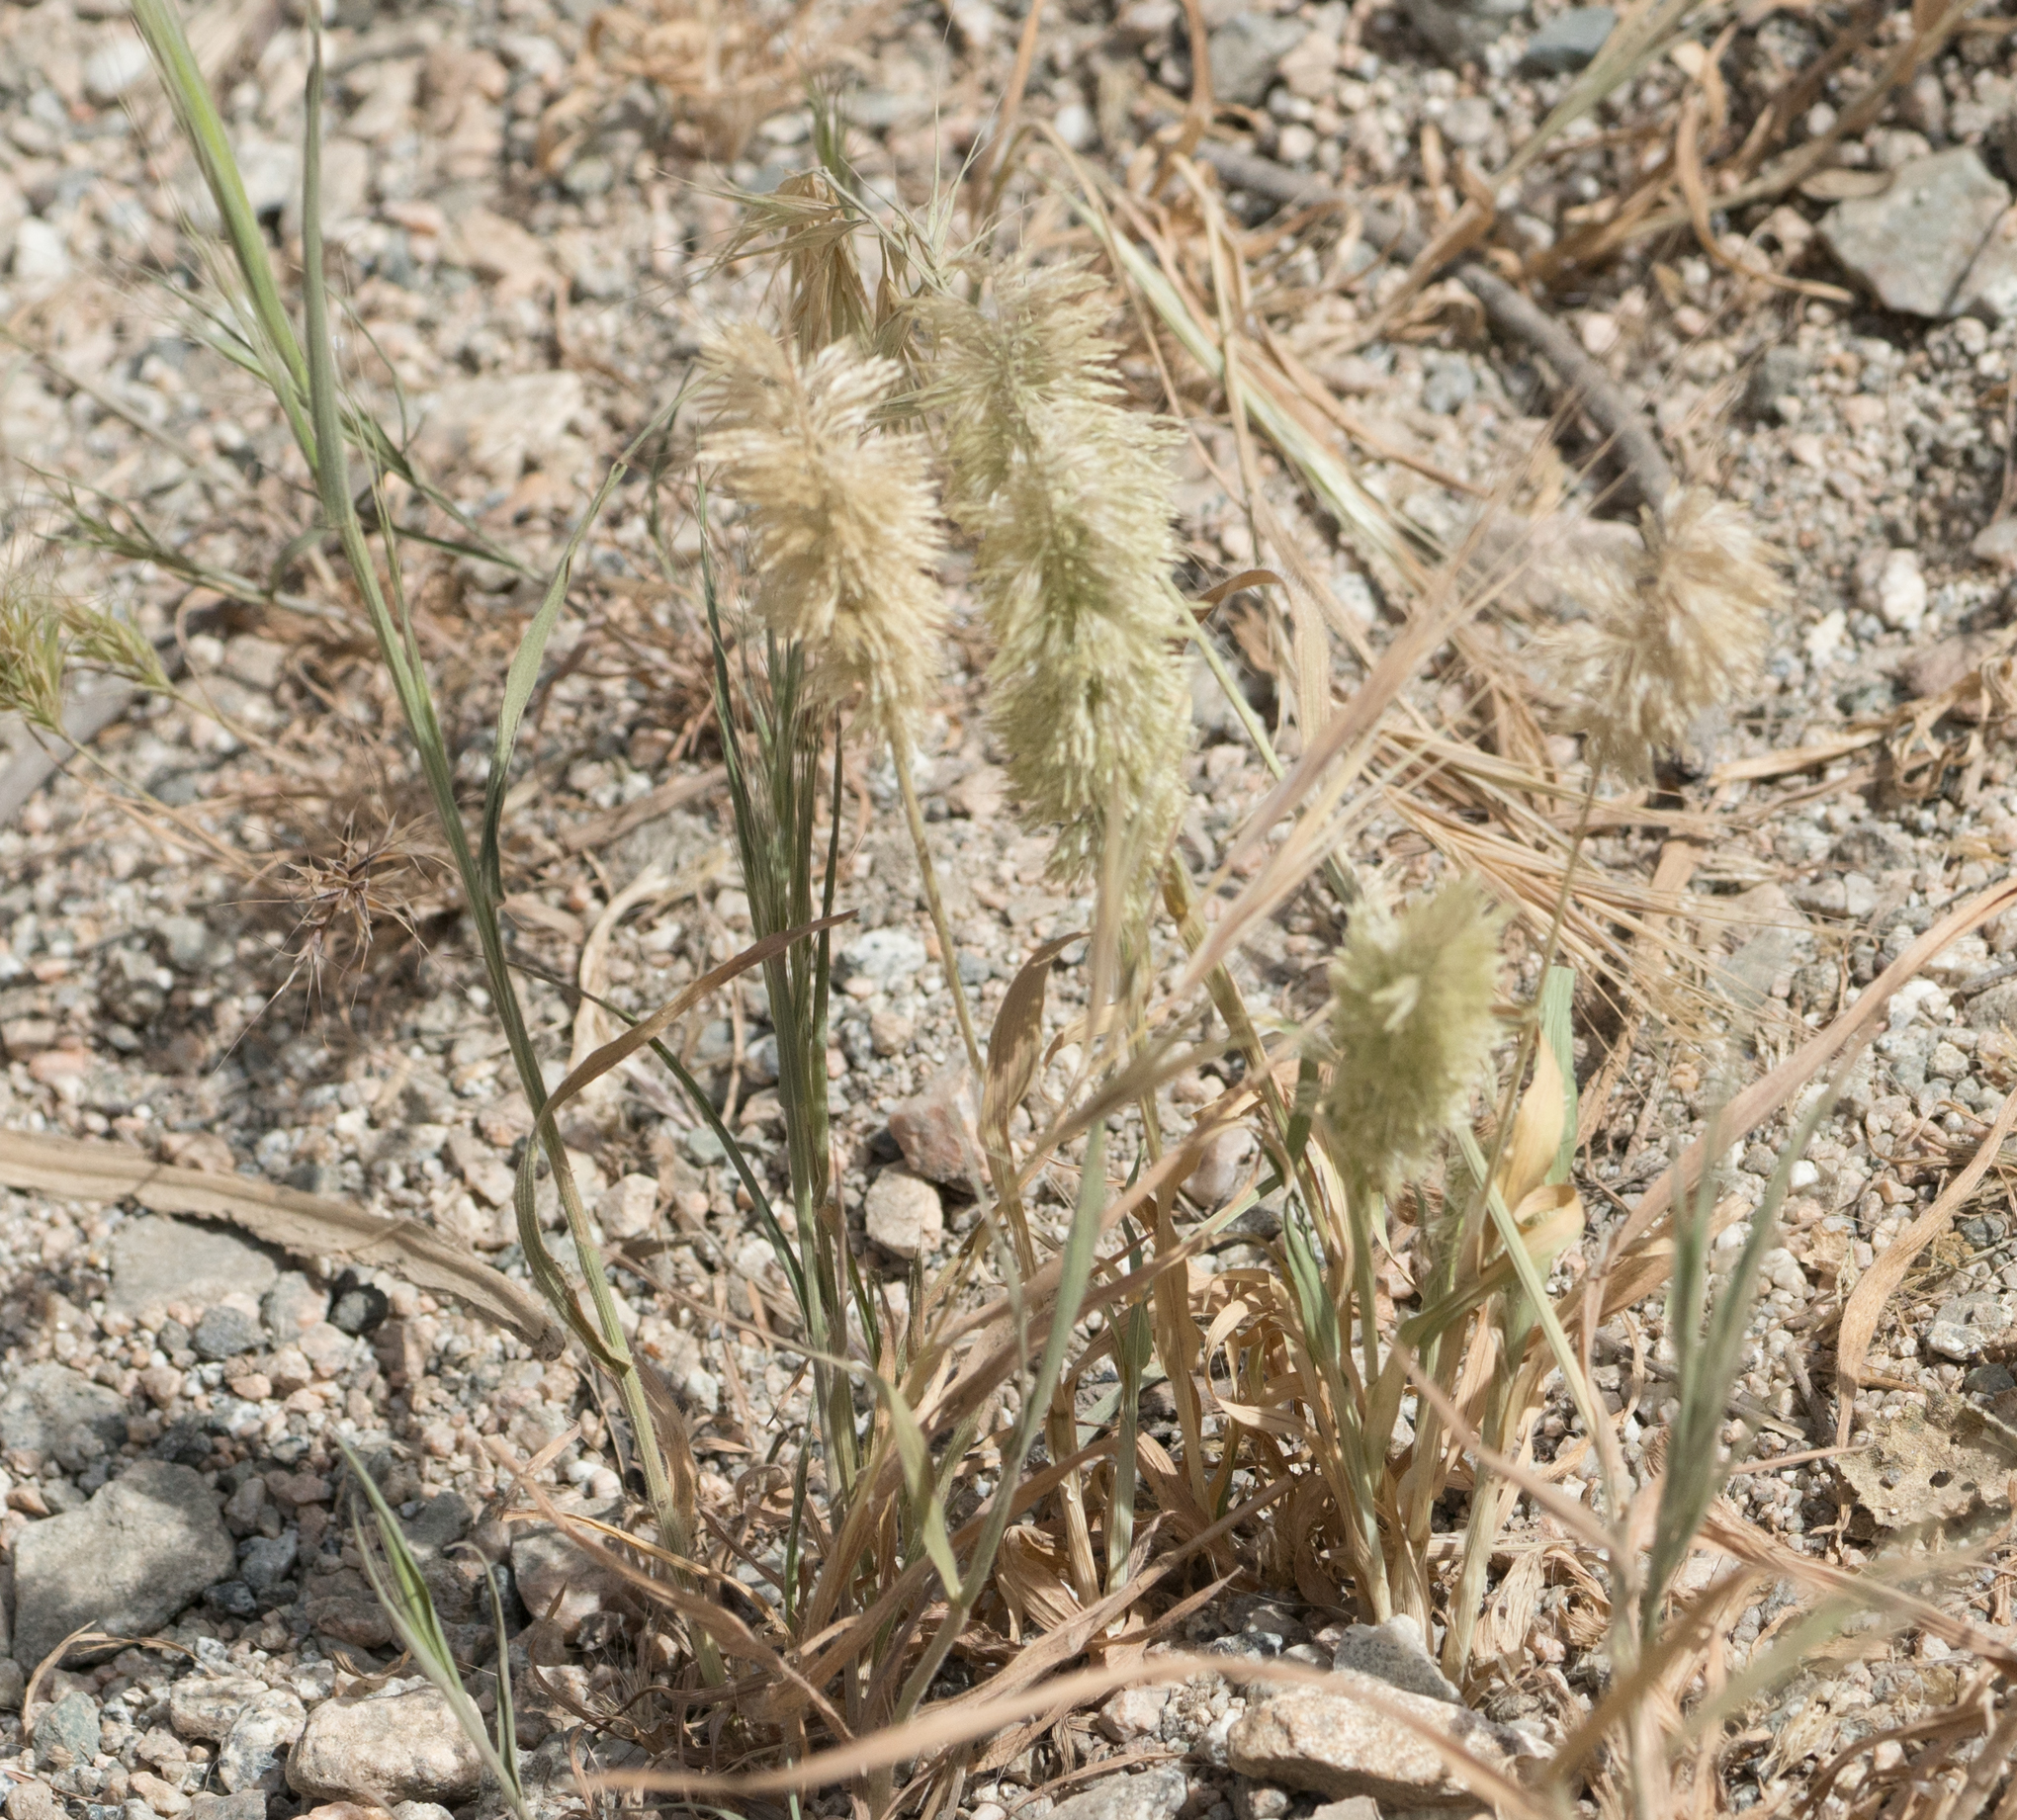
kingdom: Plantae
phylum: Tracheophyta
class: Liliopsida
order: Poales
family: Poaceae
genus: Lamarckia
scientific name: Lamarckia aurea
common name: Golden dog's-tail
